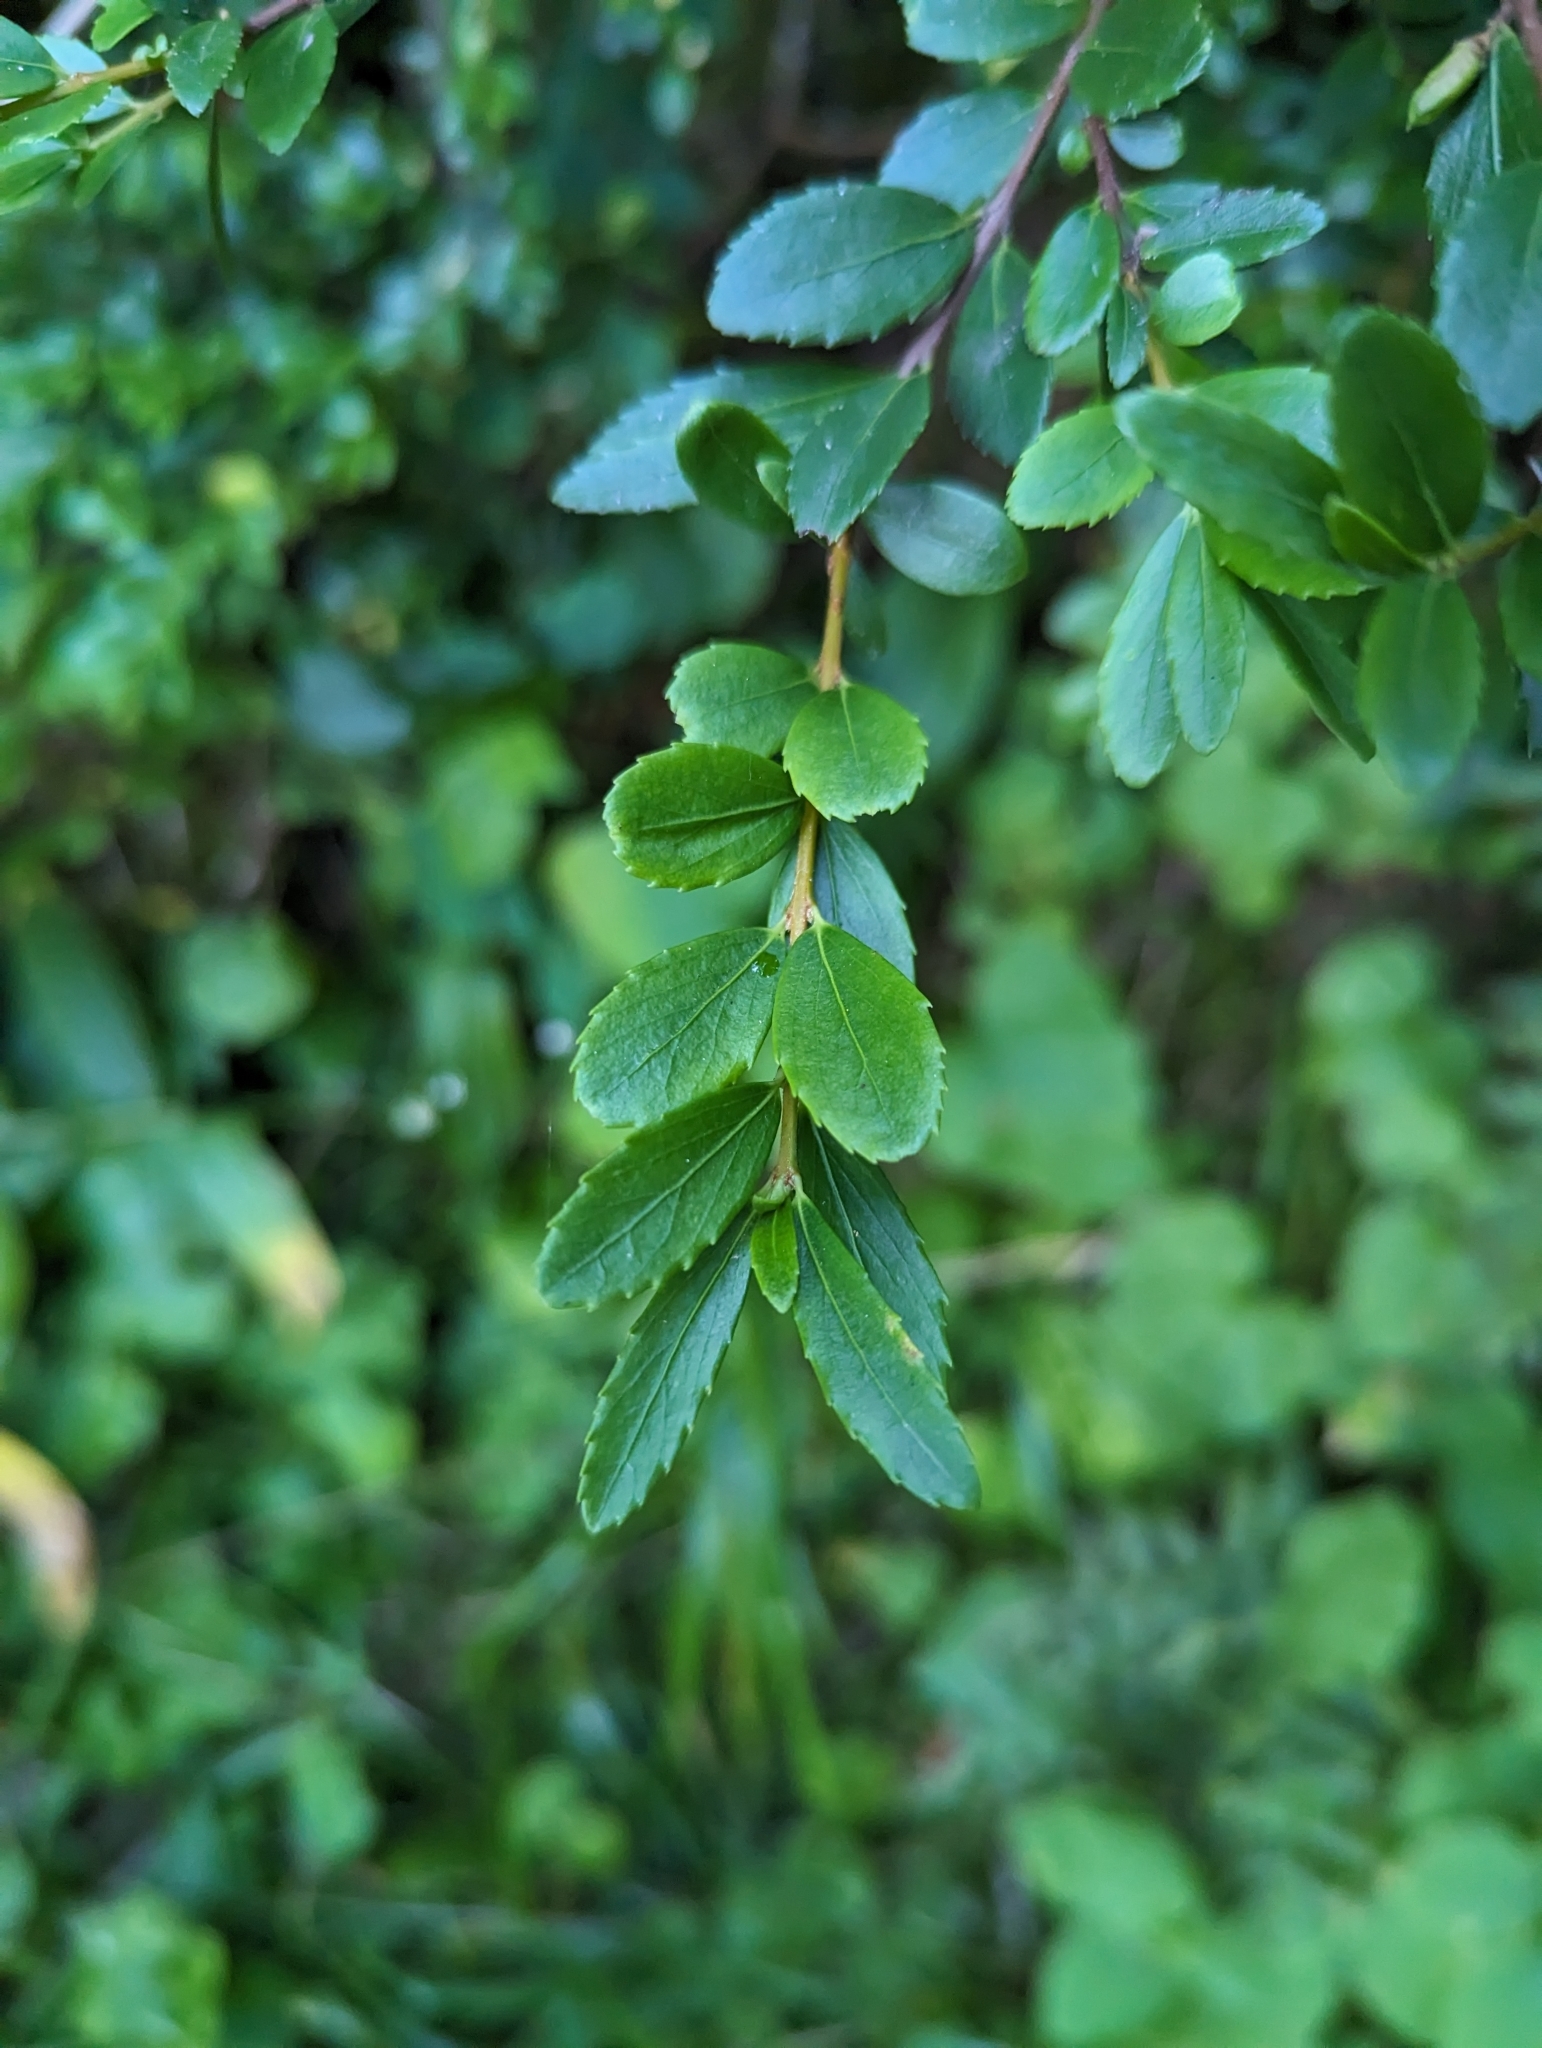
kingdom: Plantae
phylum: Tracheophyta
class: Magnoliopsida
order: Celastrales
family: Celastraceae
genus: Paxistima
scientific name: Paxistima myrsinites
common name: Mountain-lover
